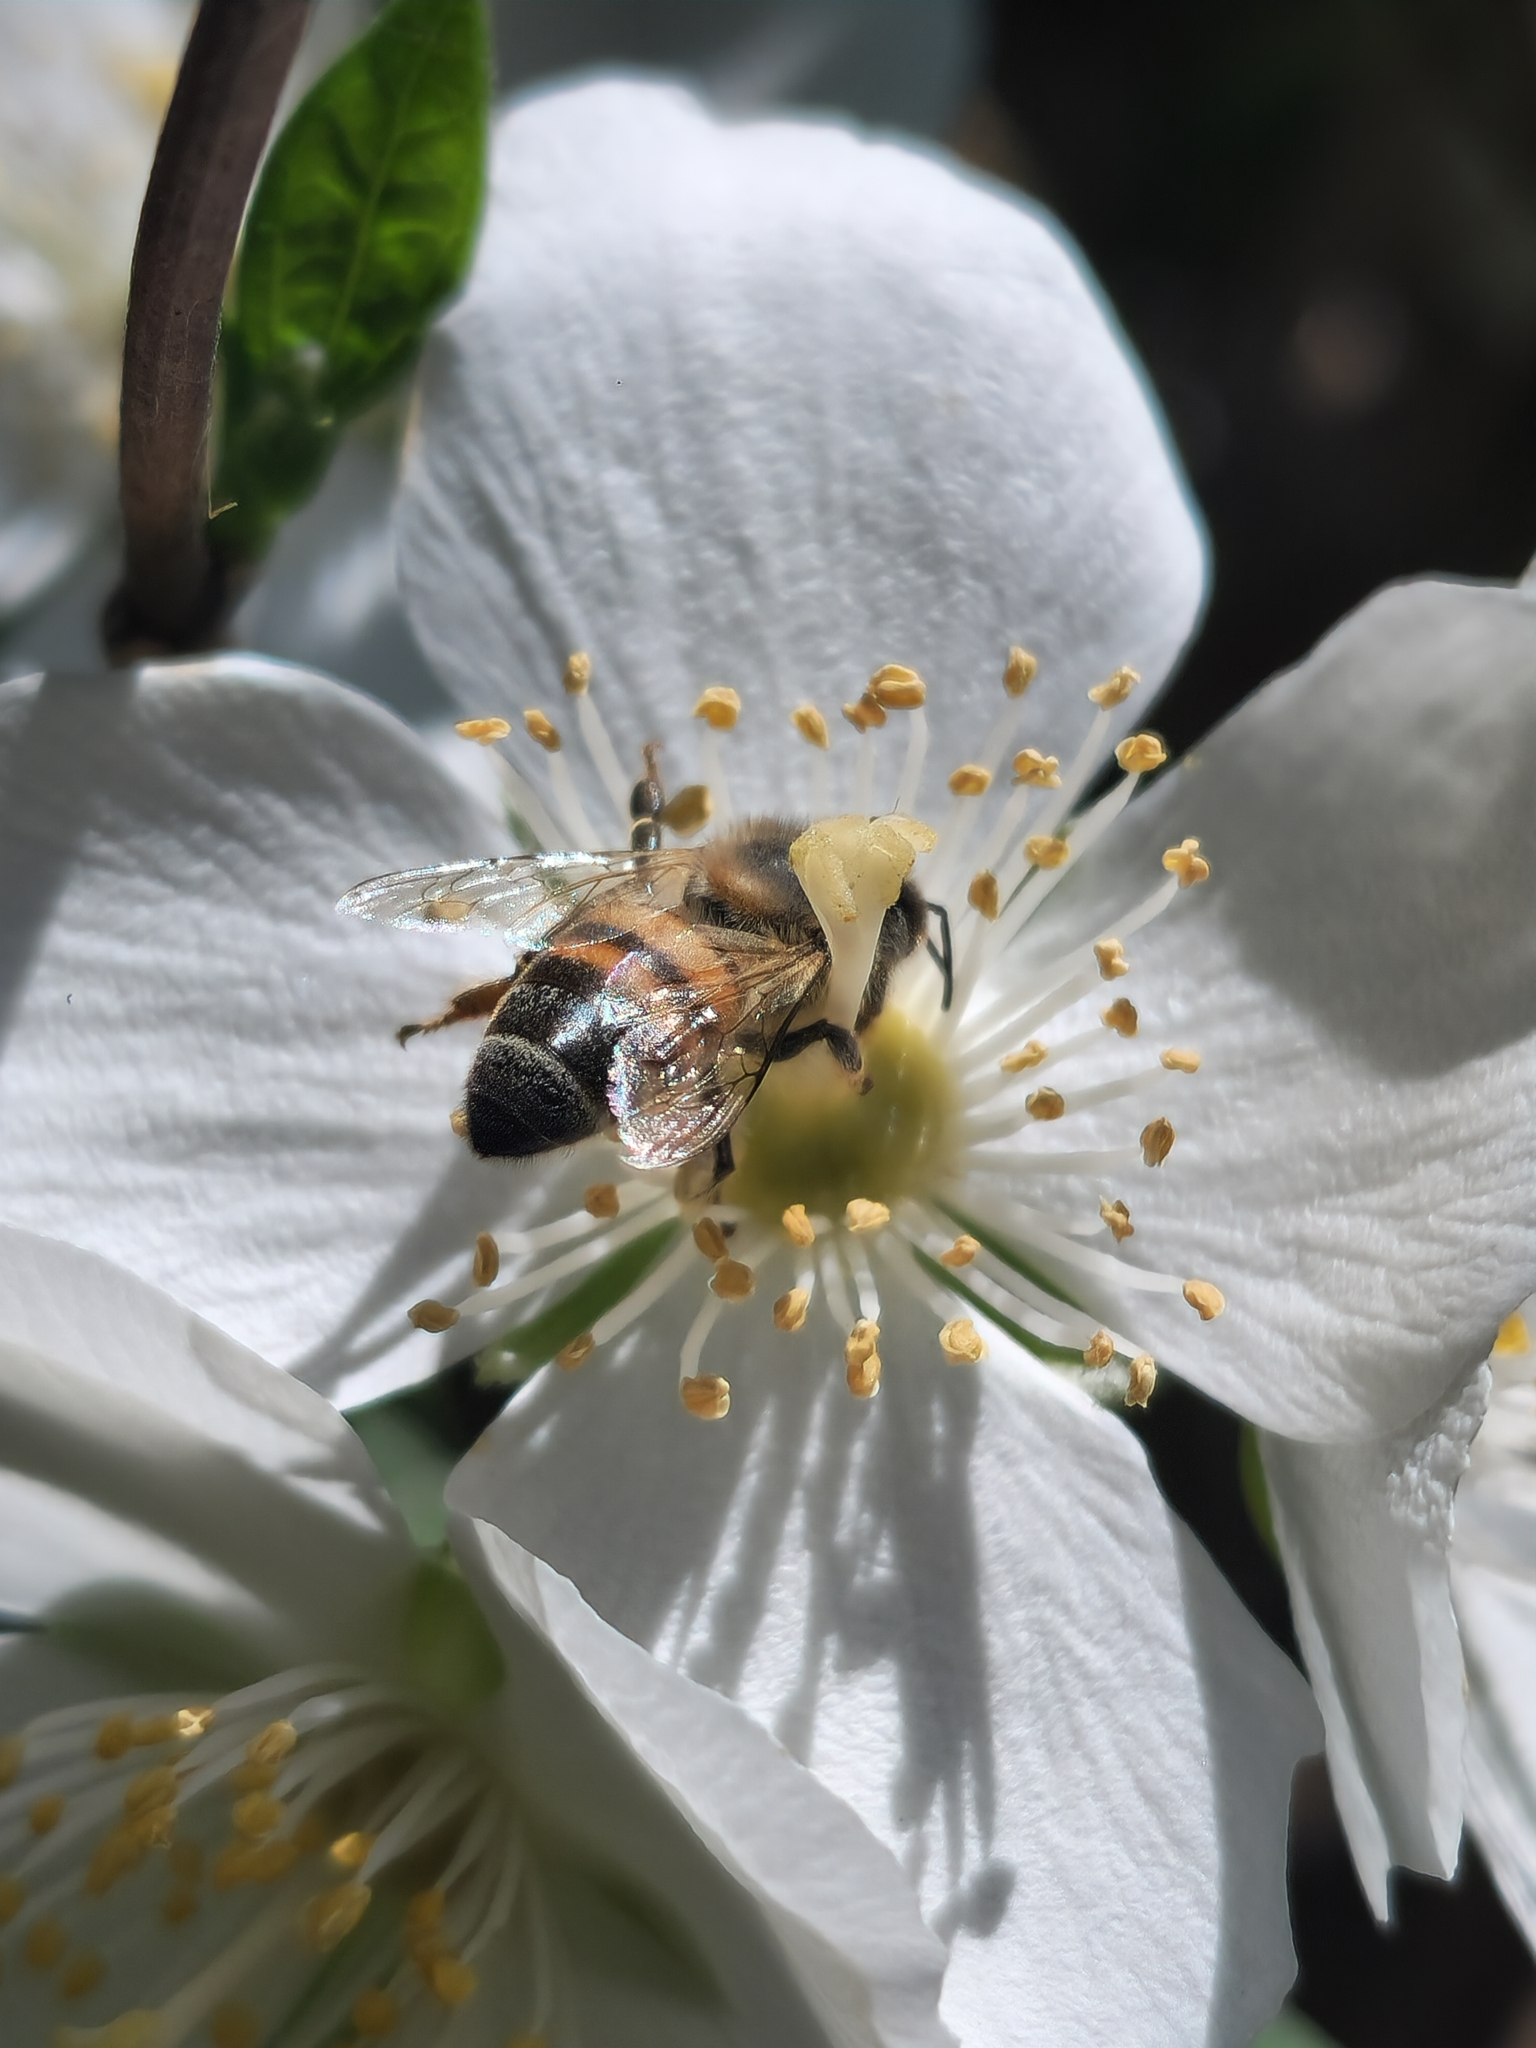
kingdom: Animalia
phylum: Arthropoda
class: Insecta
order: Hymenoptera
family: Apidae
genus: Apis
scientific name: Apis mellifera
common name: Honey bee
